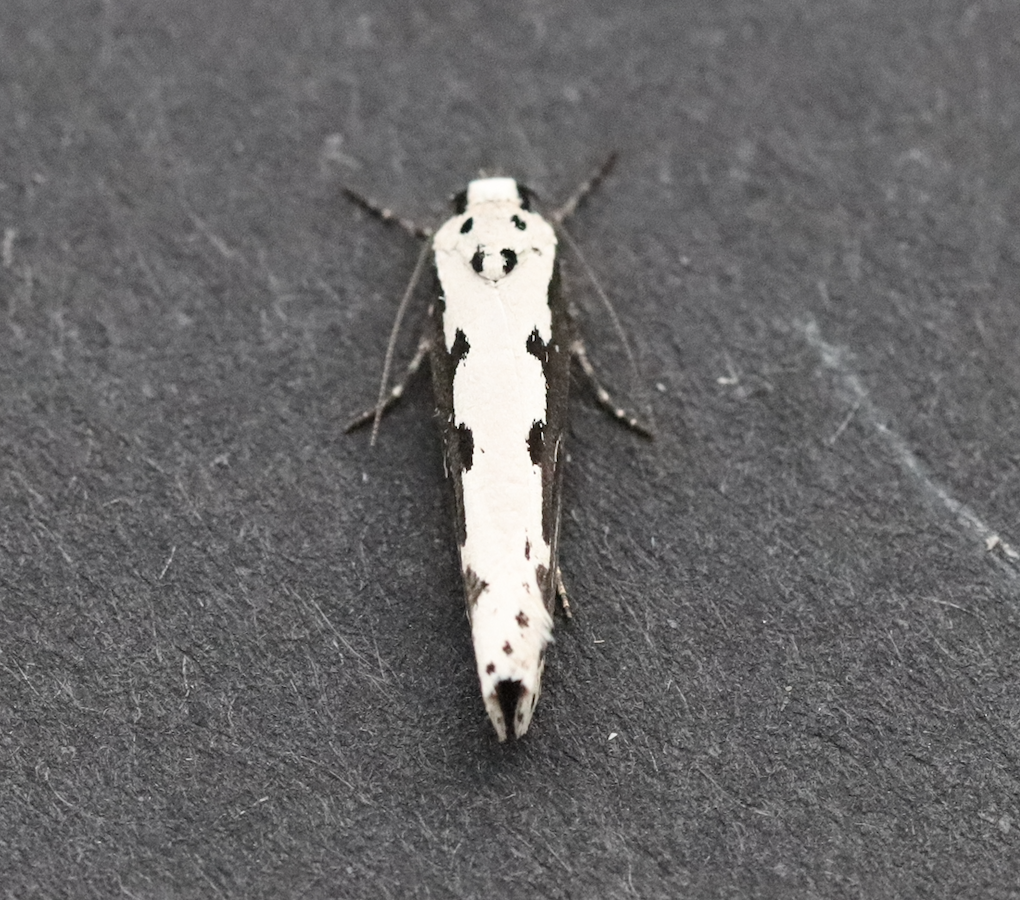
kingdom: Animalia
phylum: Arthropoda
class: Insecta
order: Lepidoptera
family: Ethmiidae
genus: Ethmia
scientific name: Ethmia bipunctella
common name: Bordered ermel
